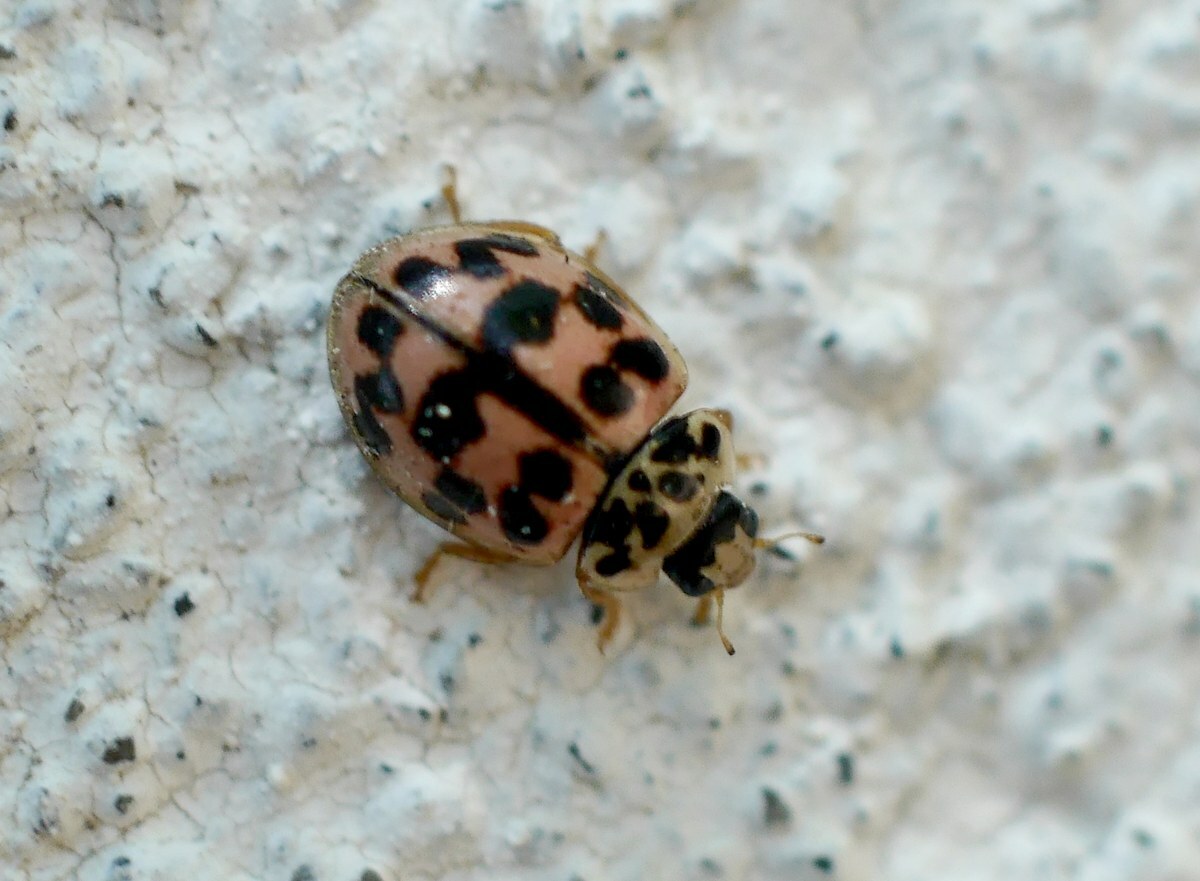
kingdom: Animalia
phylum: Arthropoda
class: Insecta
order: Coleoptera
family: Coccinellidae
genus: Oenopia
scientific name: Oenopia conglobata
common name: Ladybird beetle
